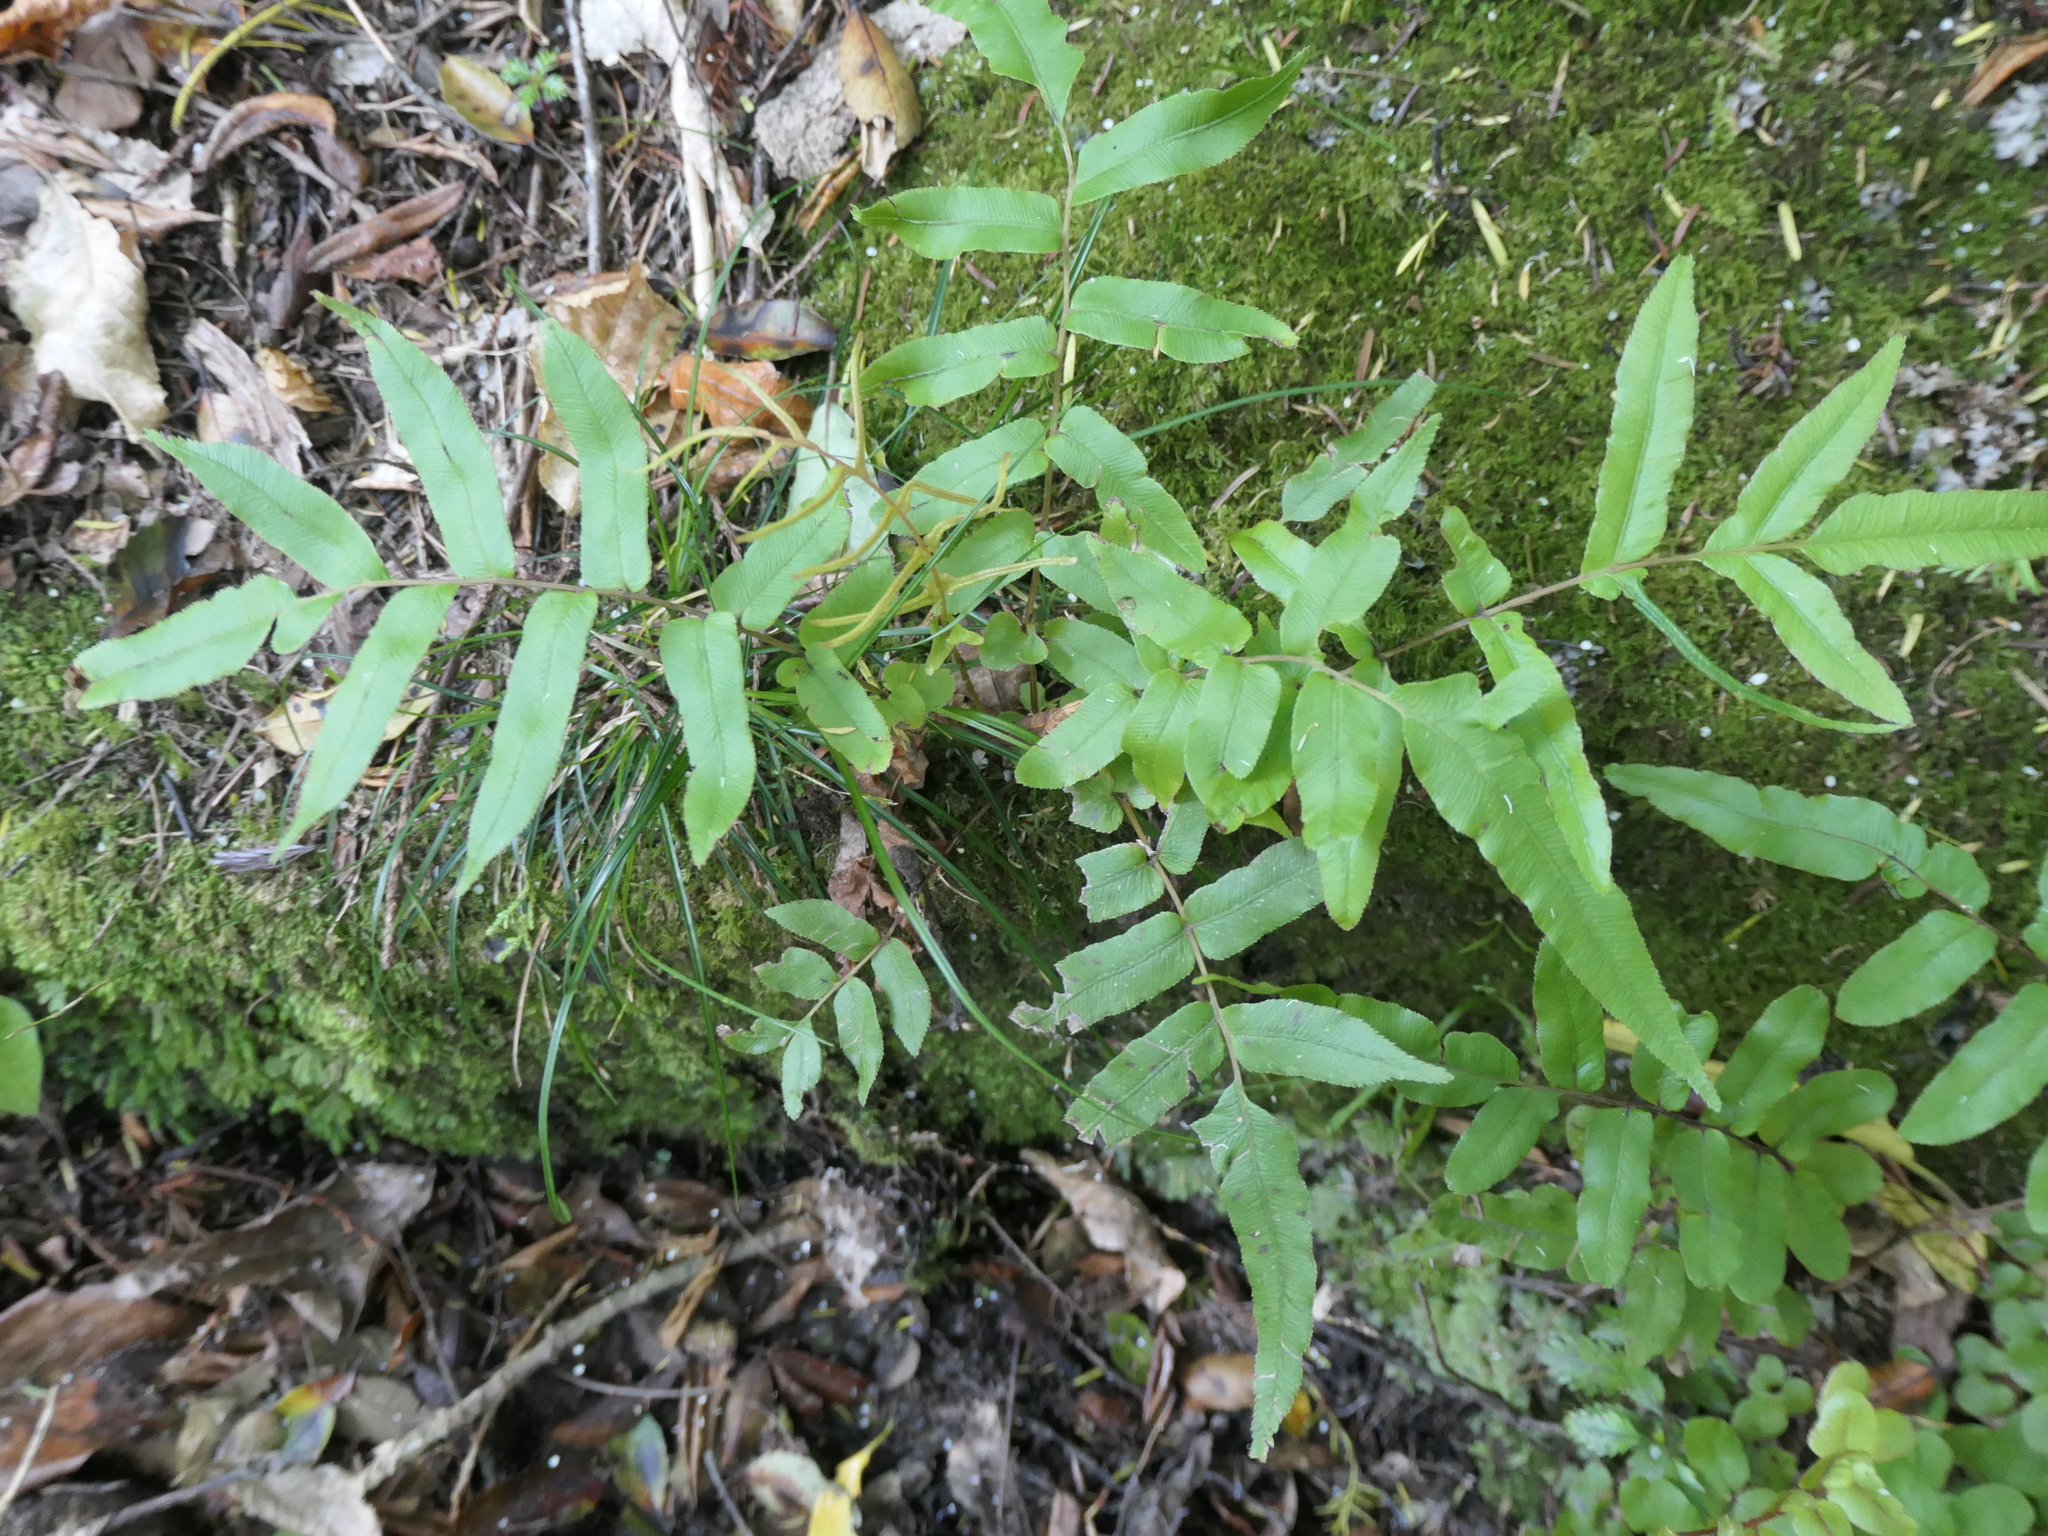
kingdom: Plantae
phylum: Tracheophyta
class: Polypodiopsida
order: Polypodiales
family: Blechnaceae
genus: Parablechnum
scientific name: Parablechnum minus
